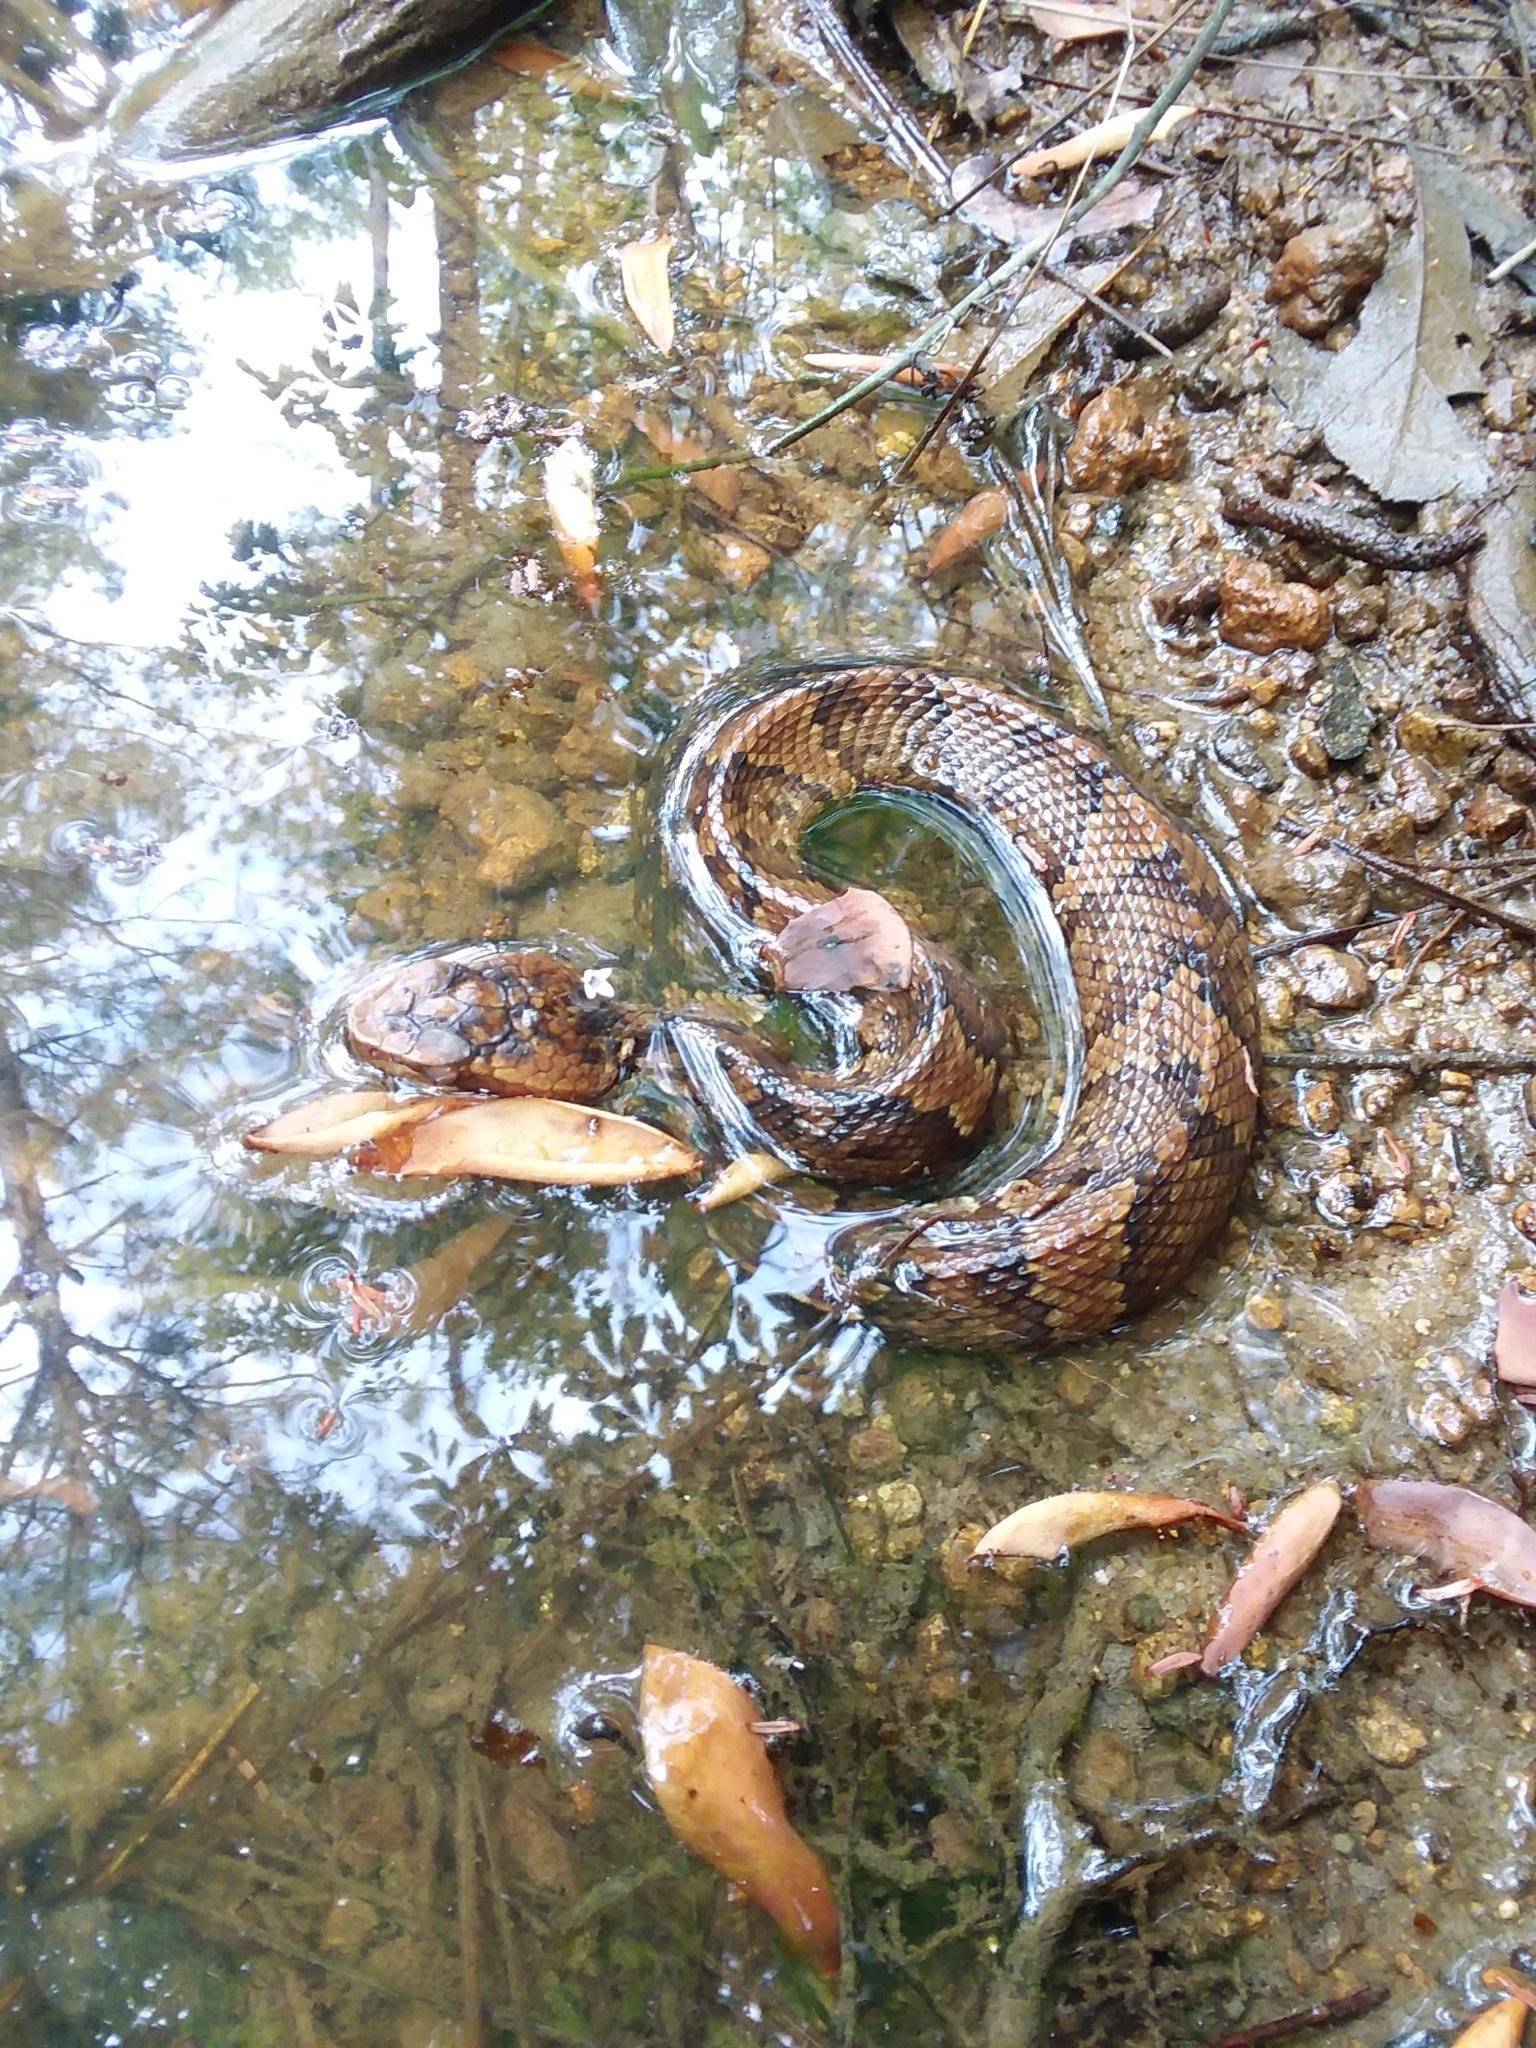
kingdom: Animalia
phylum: Chordata
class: Squamata
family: Viperidae
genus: Agkistrodon
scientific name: Agkistrodon piscivorus
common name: Cottonmouth
